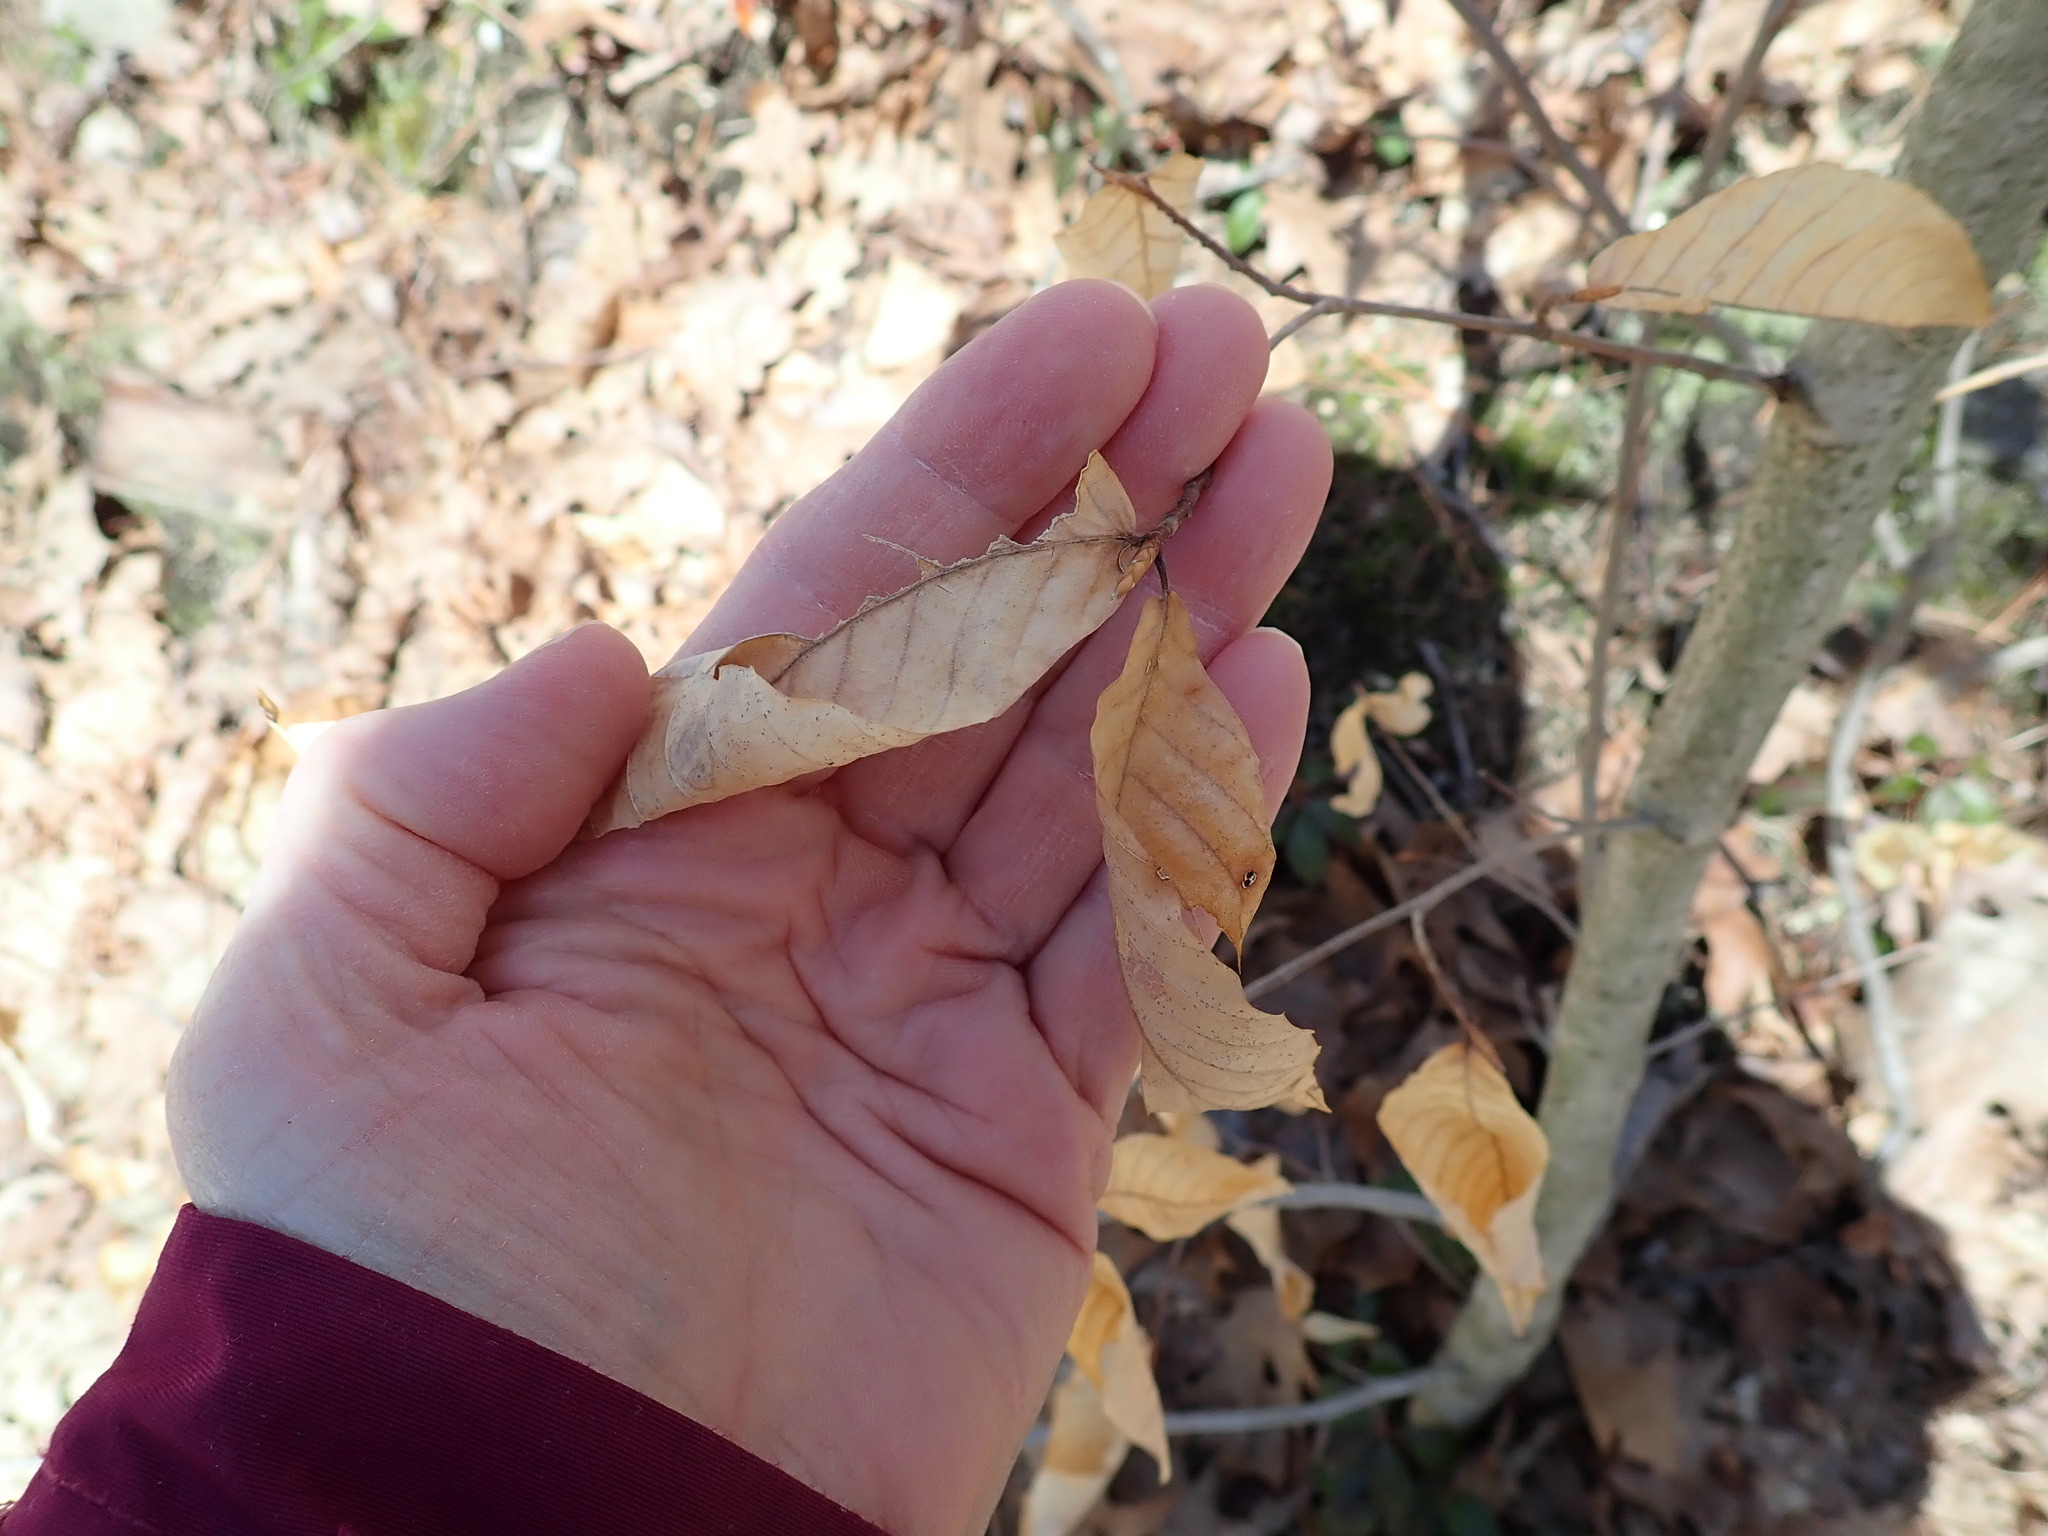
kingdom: Plantae
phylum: Tracheophyta
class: Magnoliopsida
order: Fagales
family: Fagaceae
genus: Fagus
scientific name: Fagus grandifolia
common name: American beech
